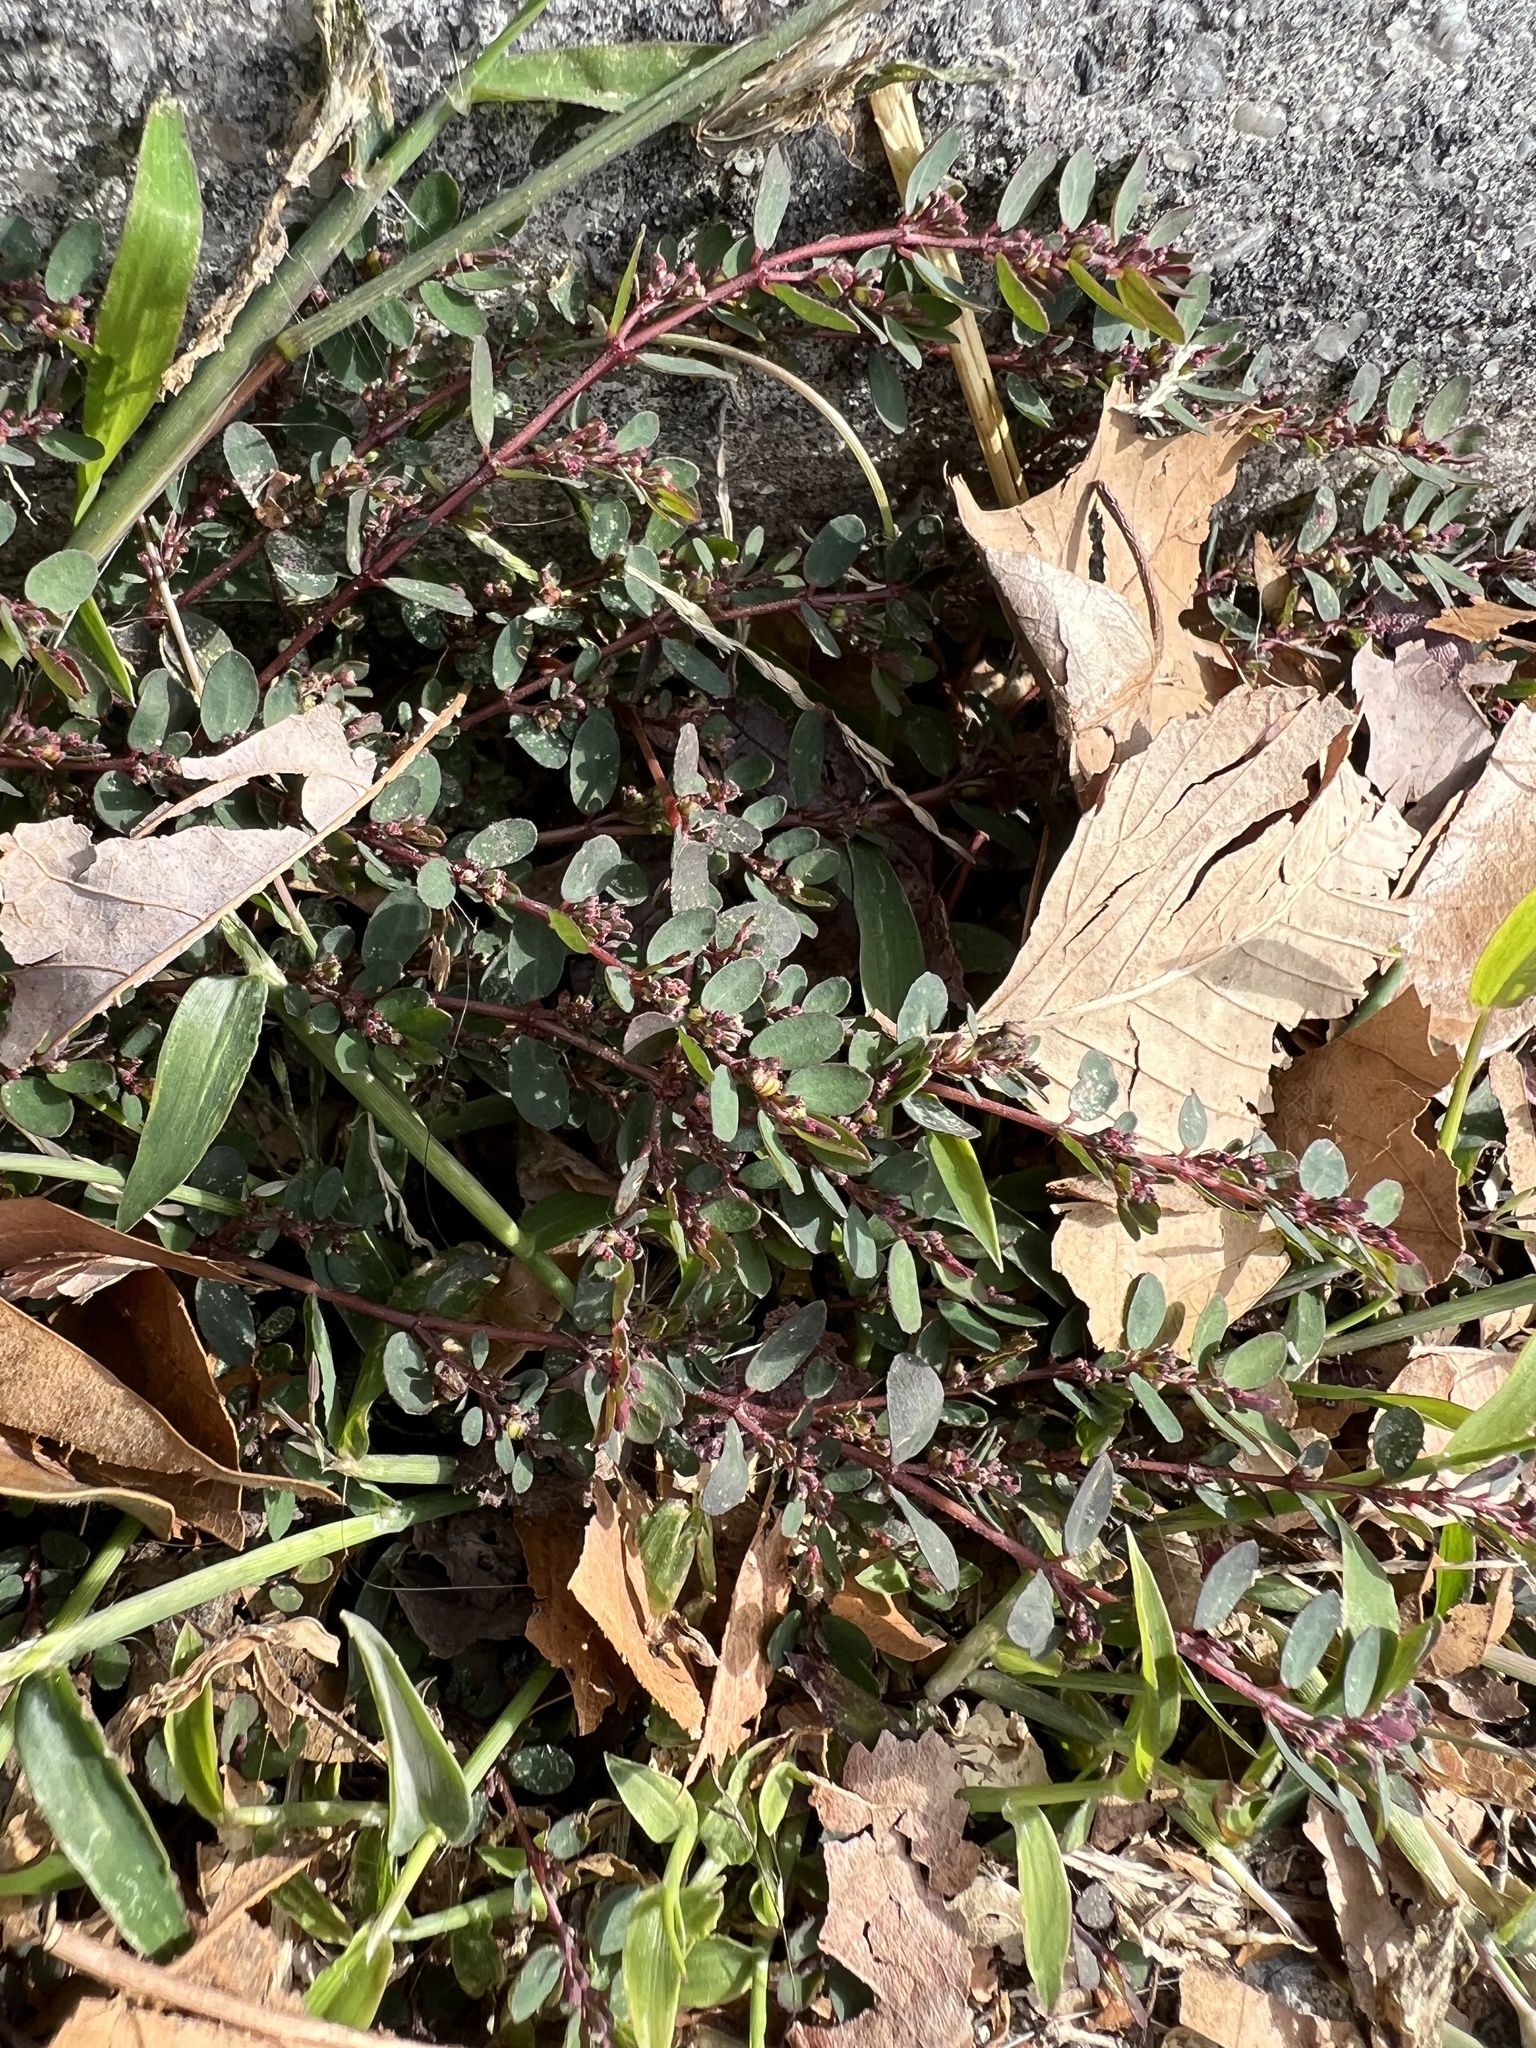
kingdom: Plantae
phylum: Tracheophyta
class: Magnoliopsida
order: Malpighiales
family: Euphorbiaceae
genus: Euphorbia
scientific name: Euphorbia prostrata
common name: Prostrate sandmat
